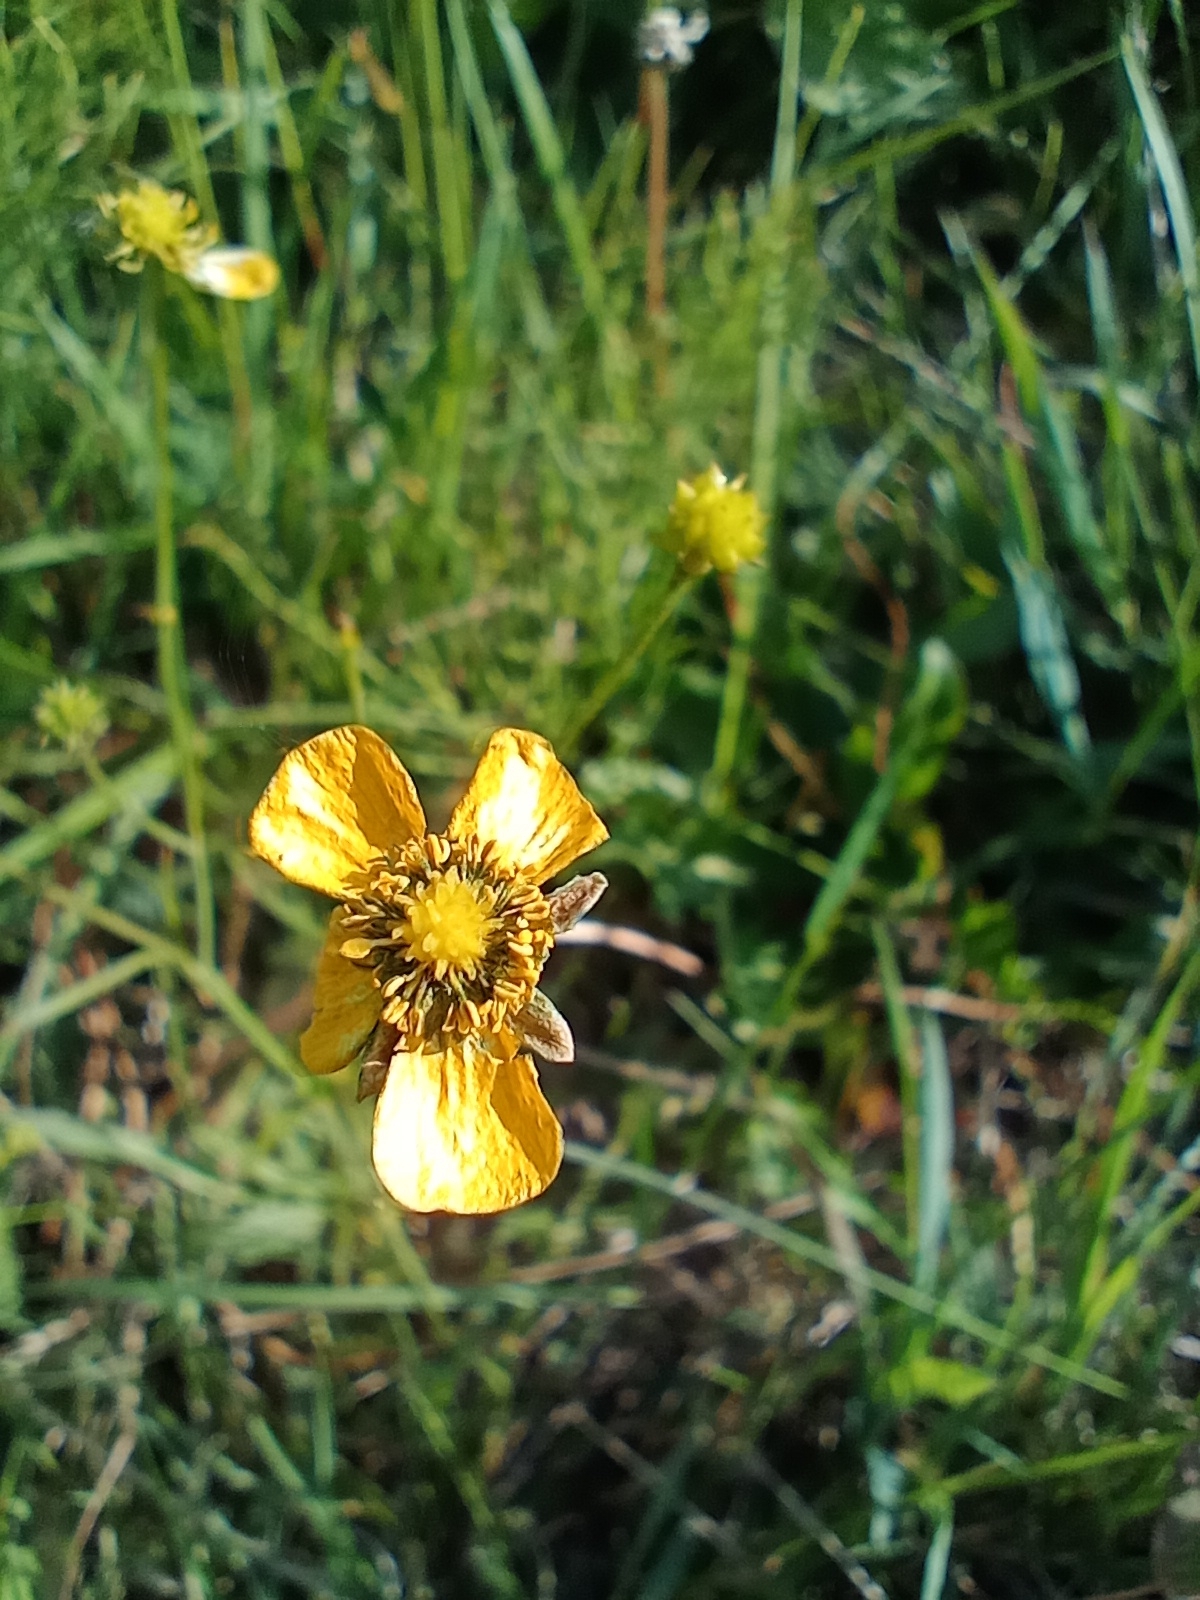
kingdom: Plantae
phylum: Tracheophyta
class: Magnoliopsida
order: Ranunculales
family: Ranunculaceae
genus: Ranunculus
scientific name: Ranunculus acris
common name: Meadow buttercup
